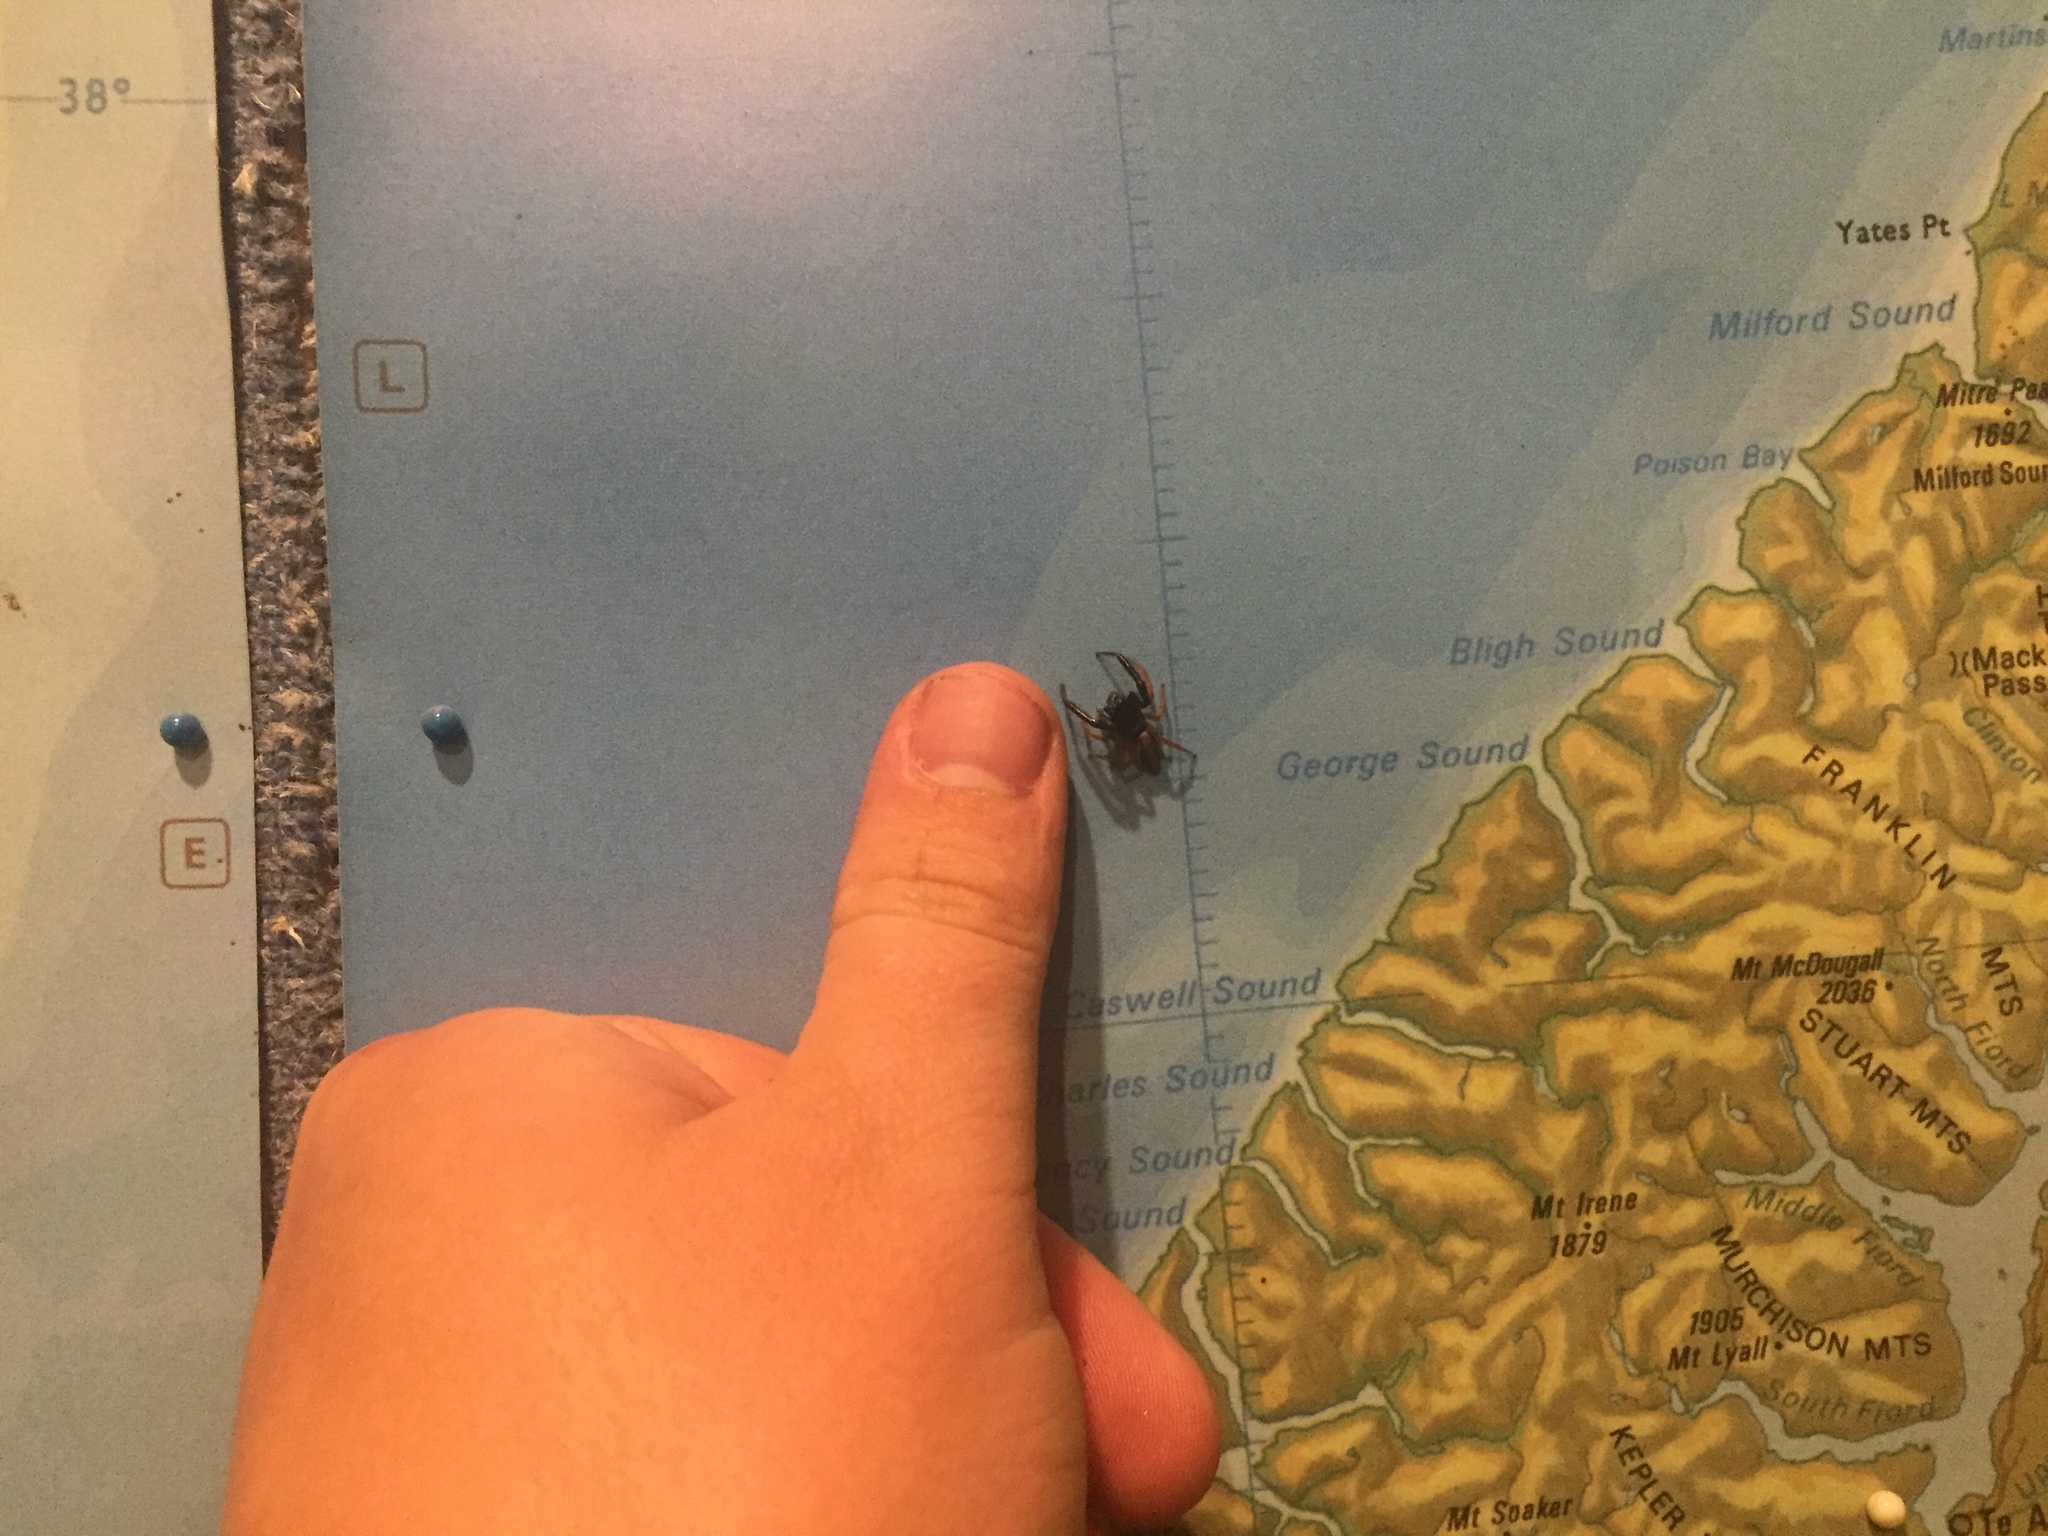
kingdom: Animalia
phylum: Arthropoda
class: Arachnida
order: Araneae
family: Salticidae
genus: Trite
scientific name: Trite planiceps
